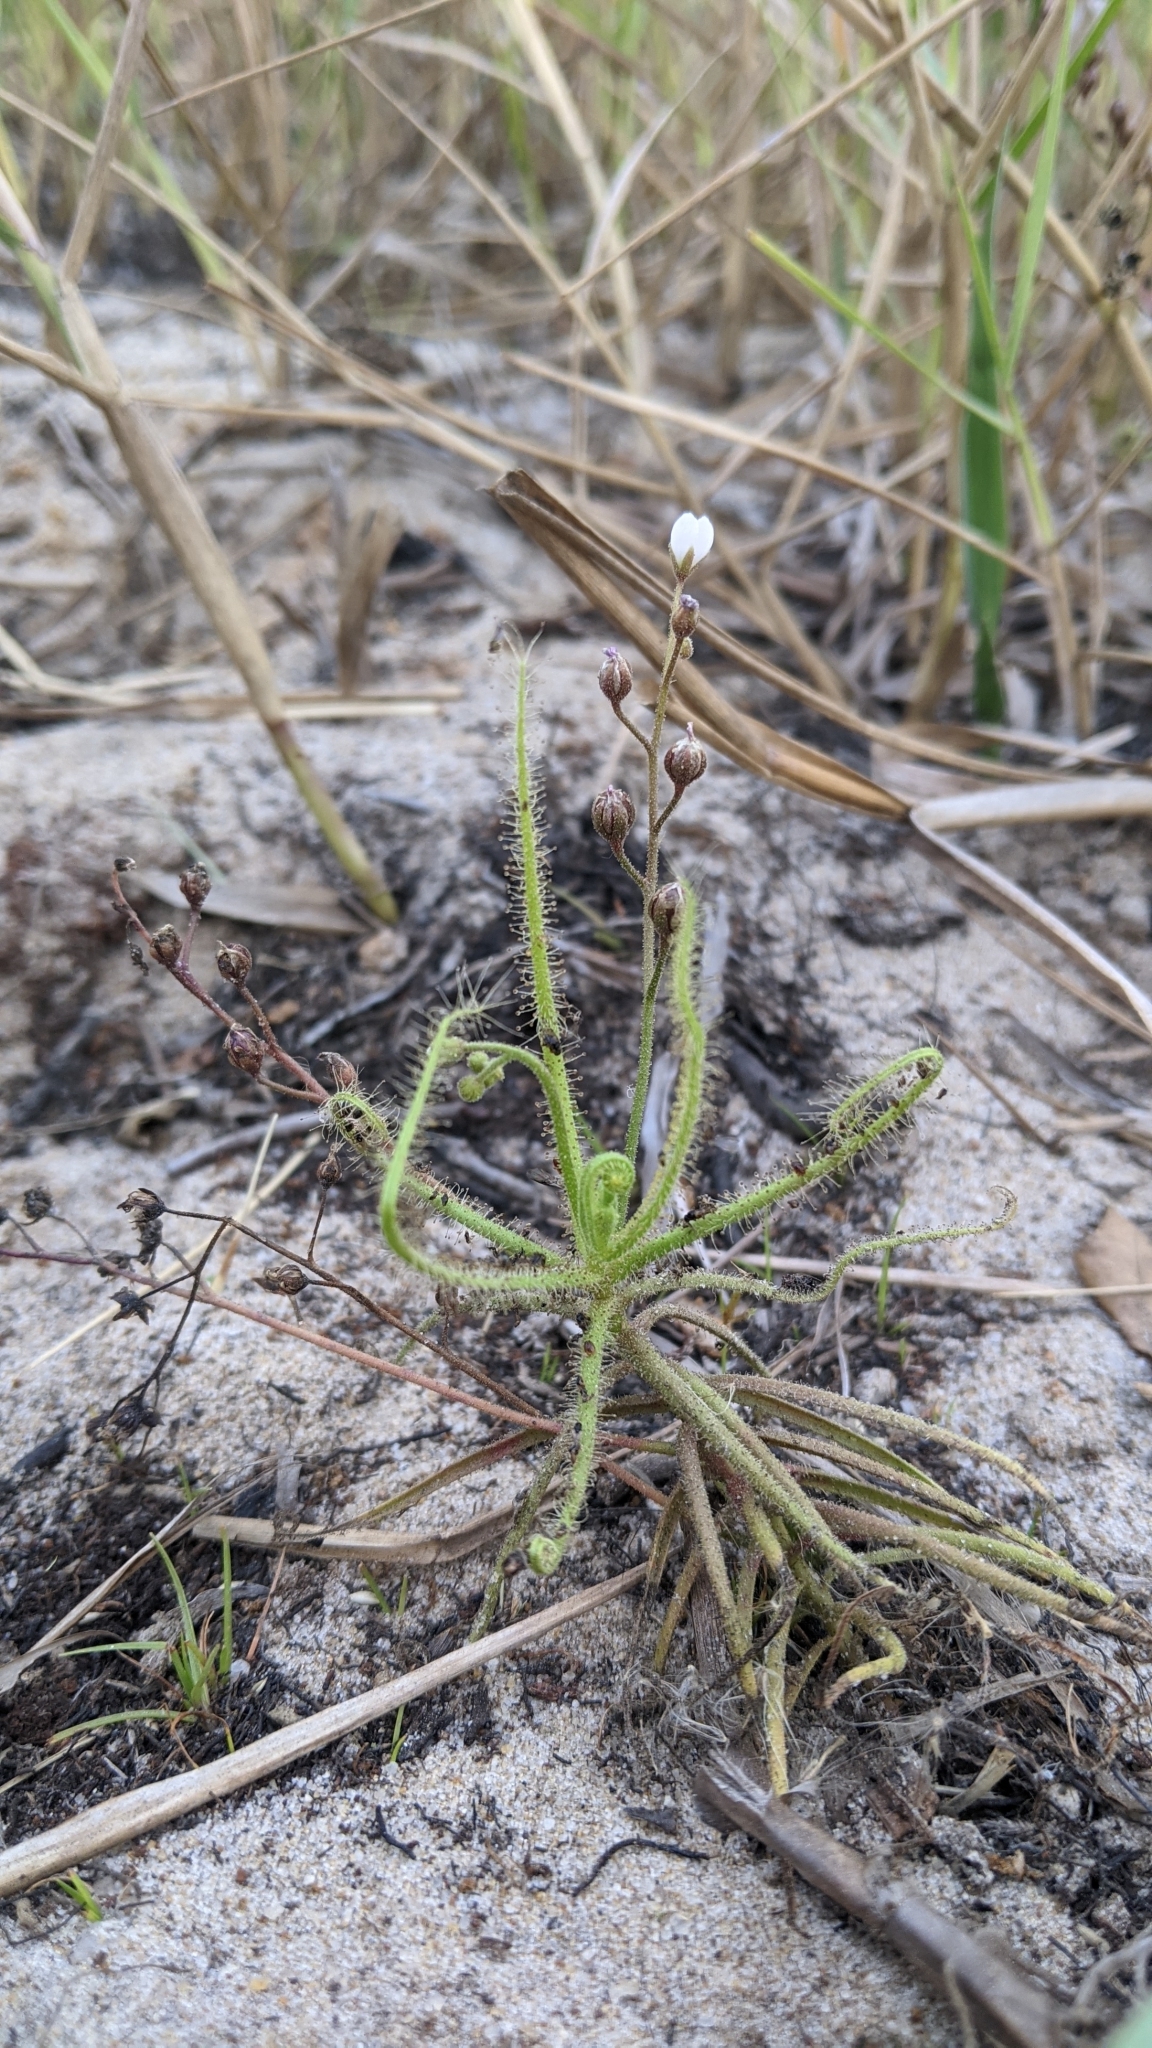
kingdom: Plantae
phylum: Tracheophyta
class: Magnoliopsida
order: Caryophyllales
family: Droseraceae
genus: Drosera
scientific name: Drosera finlaysoniana
